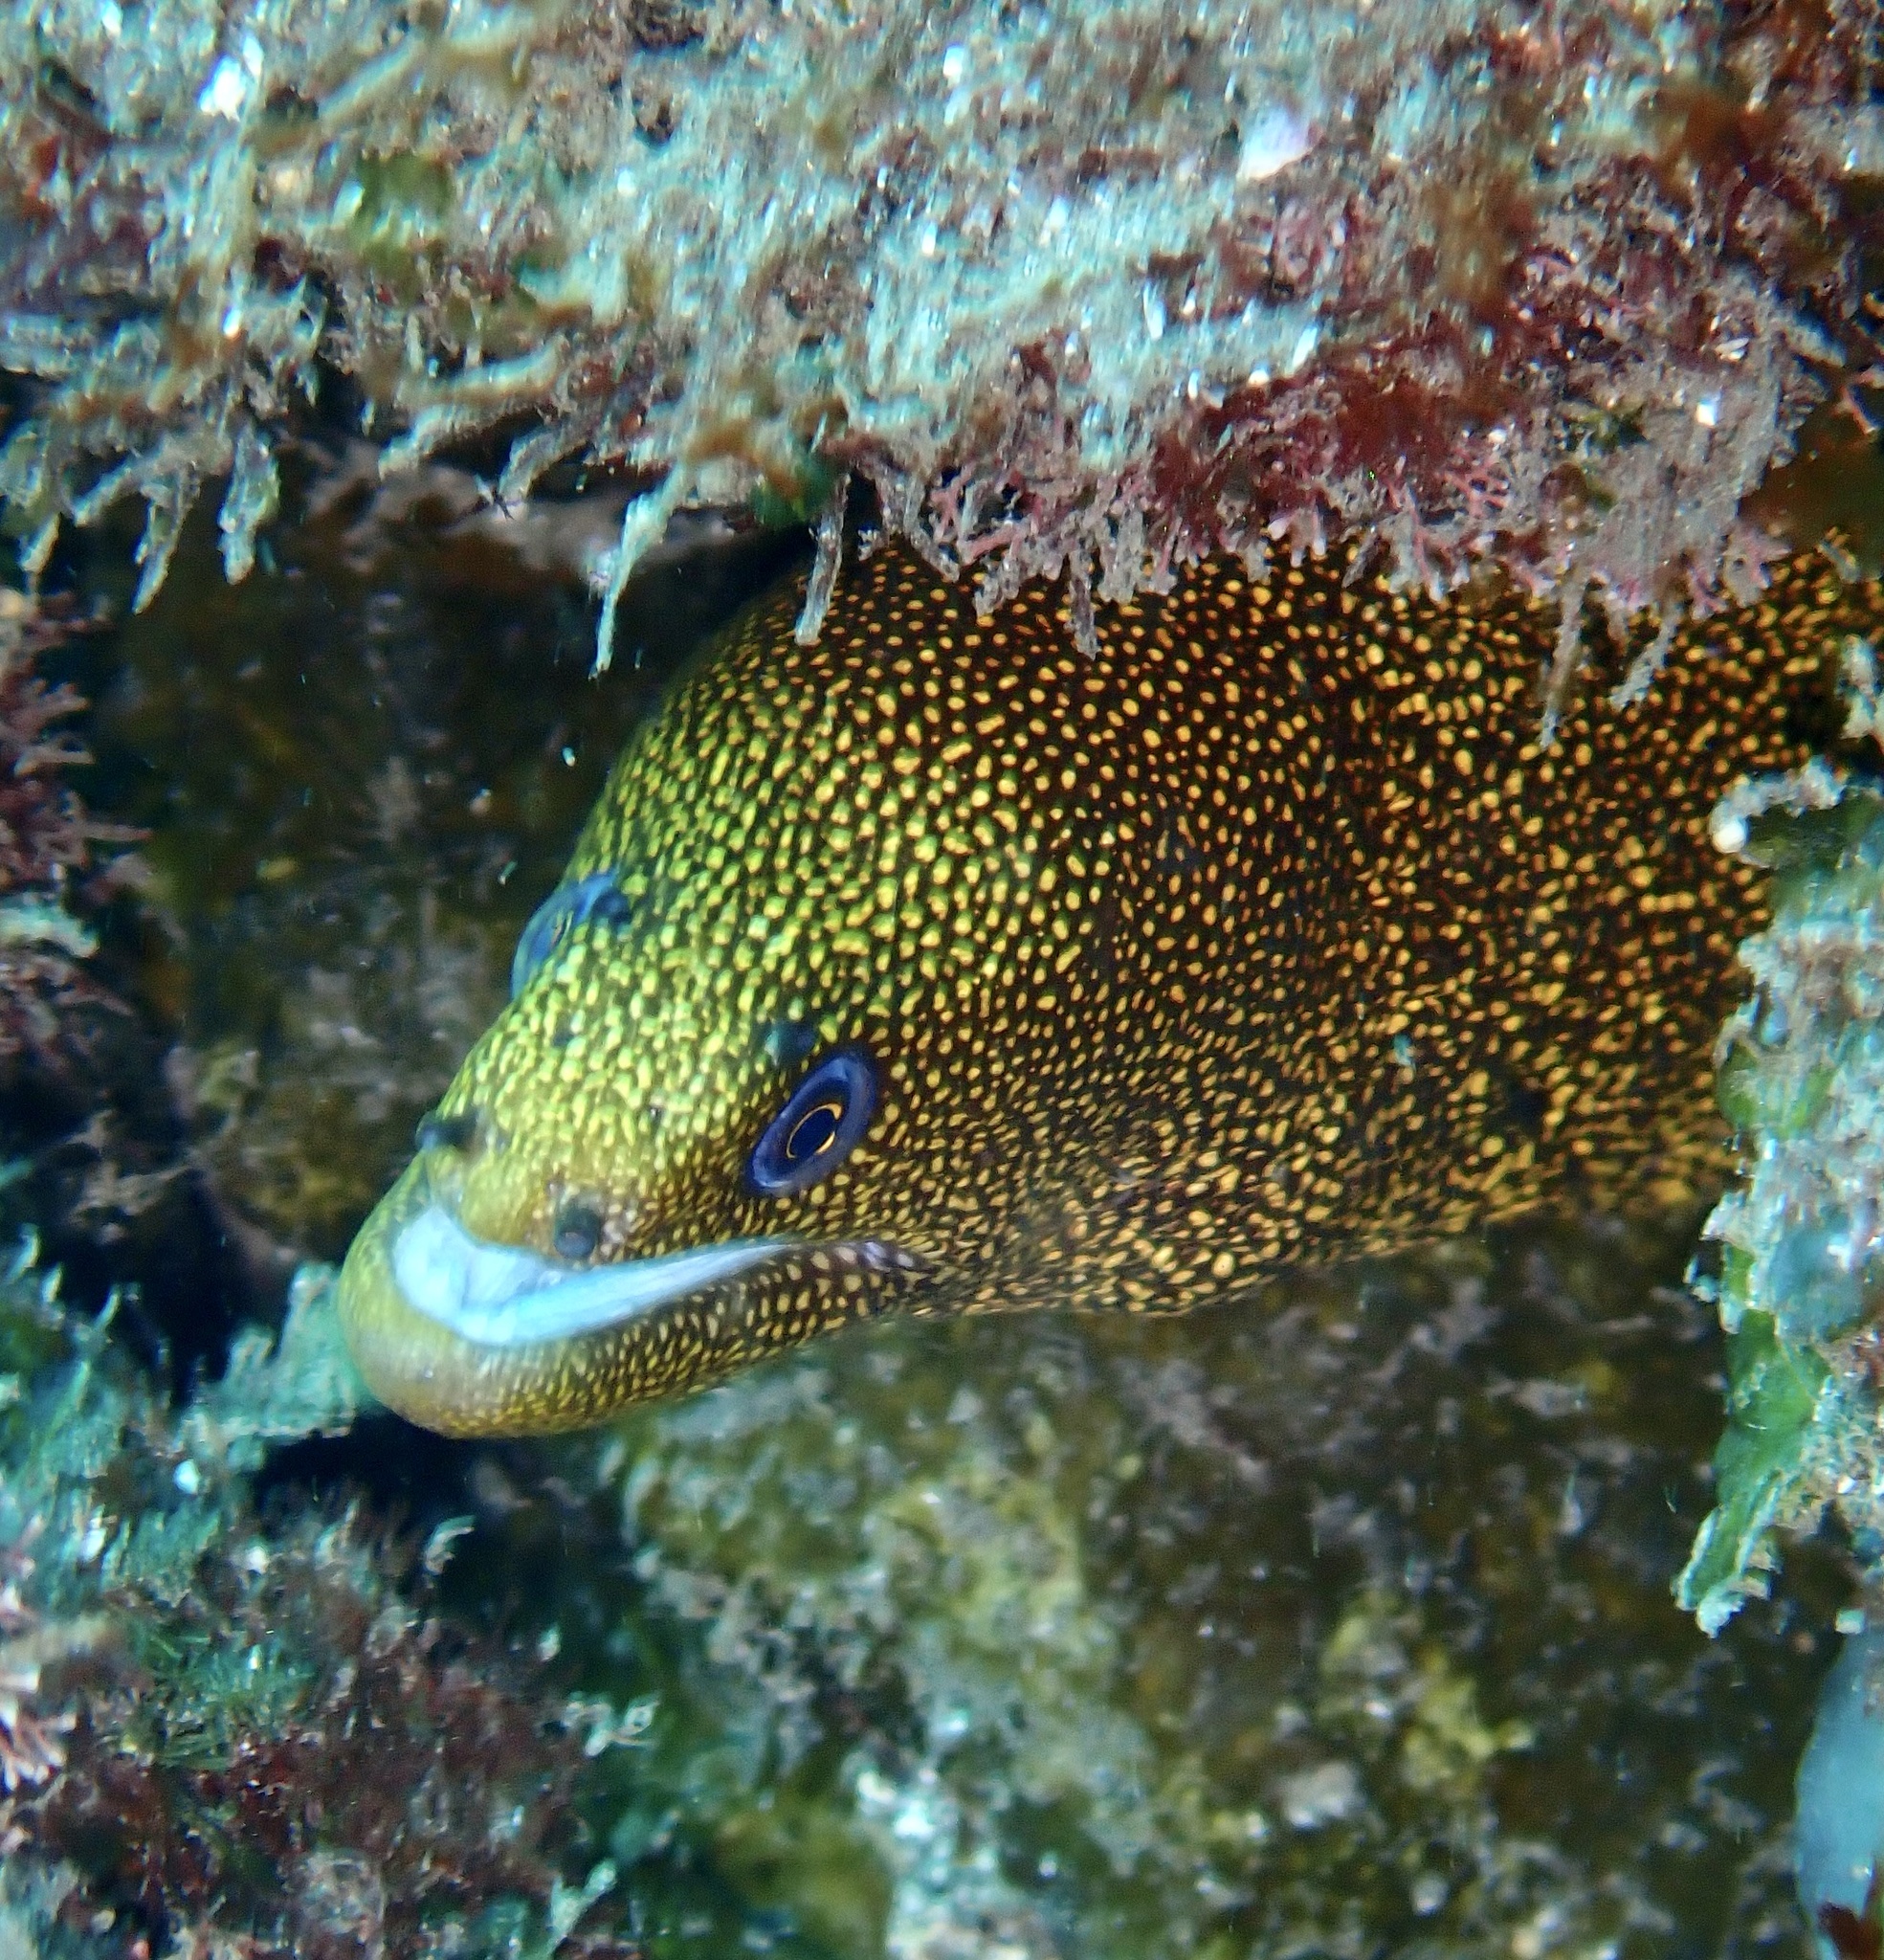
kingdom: Animalia
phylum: Chordata
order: Anguilliformes
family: Muraenidae
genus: Gymnothorax
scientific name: Gymnothorax miliaris
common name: Goldentail moray
